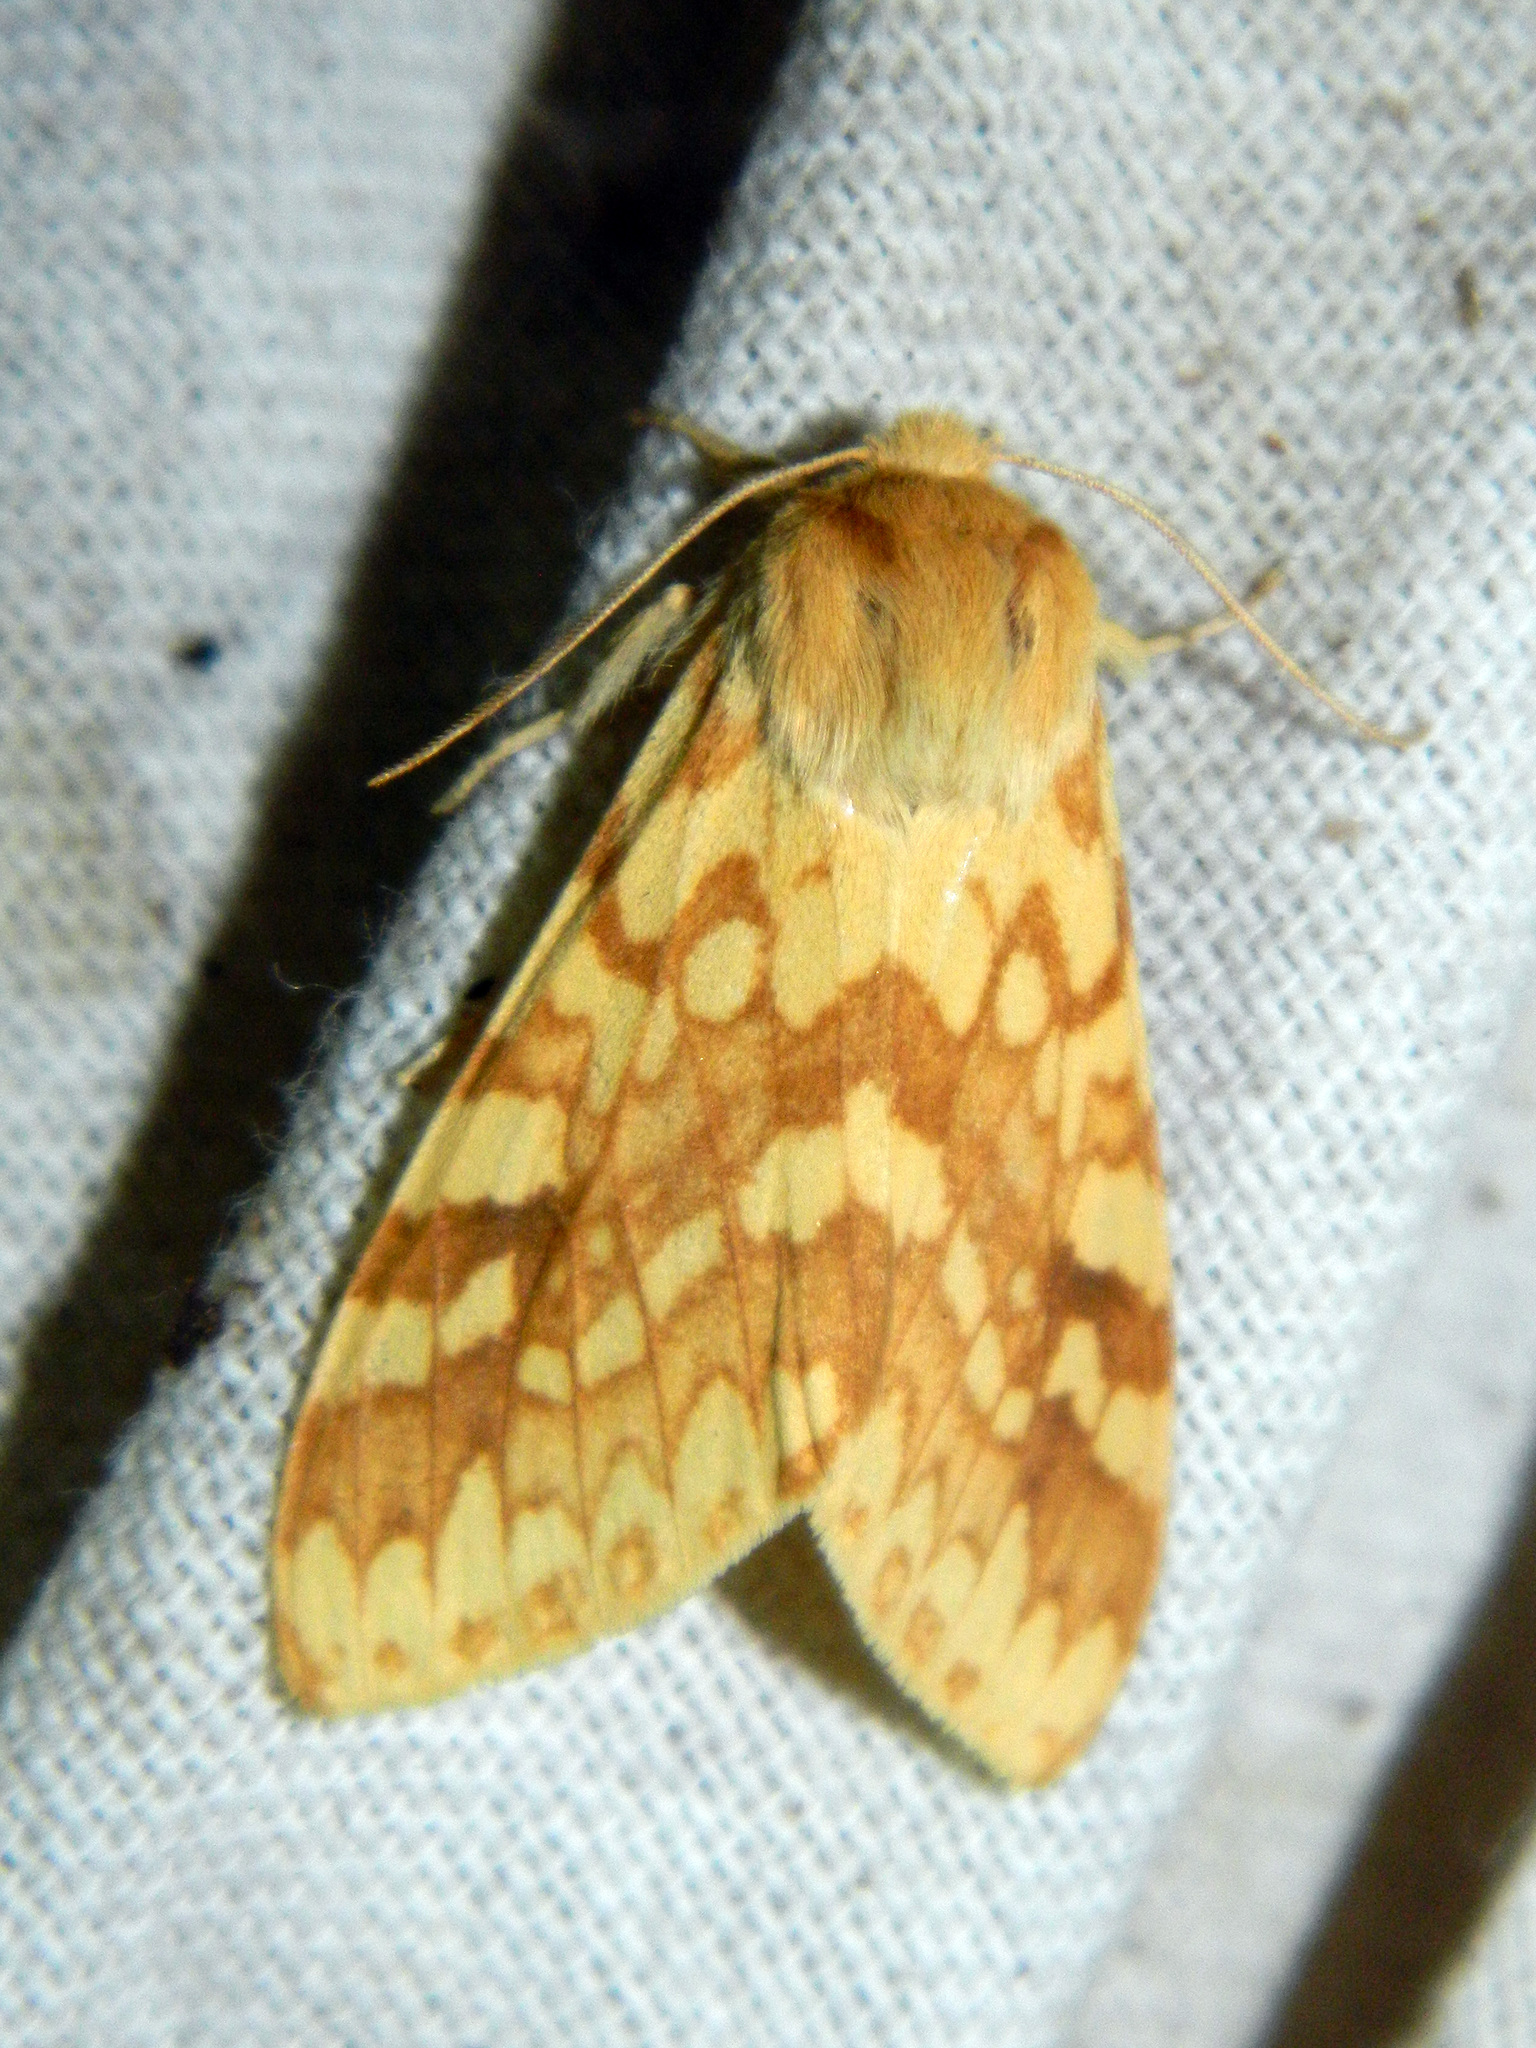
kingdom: Animalia
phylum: Arthropoda
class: Insecta
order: Lepidoptera
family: Erebidae
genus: Lophocampa
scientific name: Lophocampa maculata
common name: Spotted tussock moth
